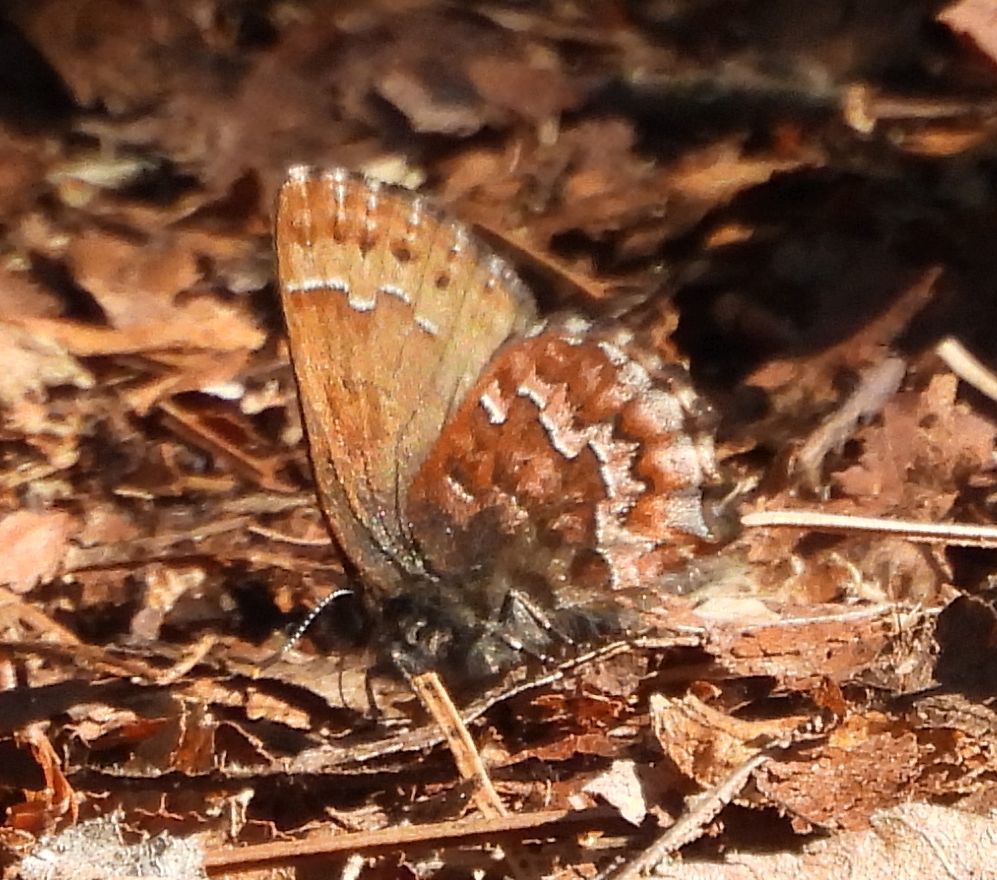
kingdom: Animalia
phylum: Arthropoda
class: Insecta
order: Lepidoptera
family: Lycaenidae
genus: Incisalia
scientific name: Incisalia niphon
